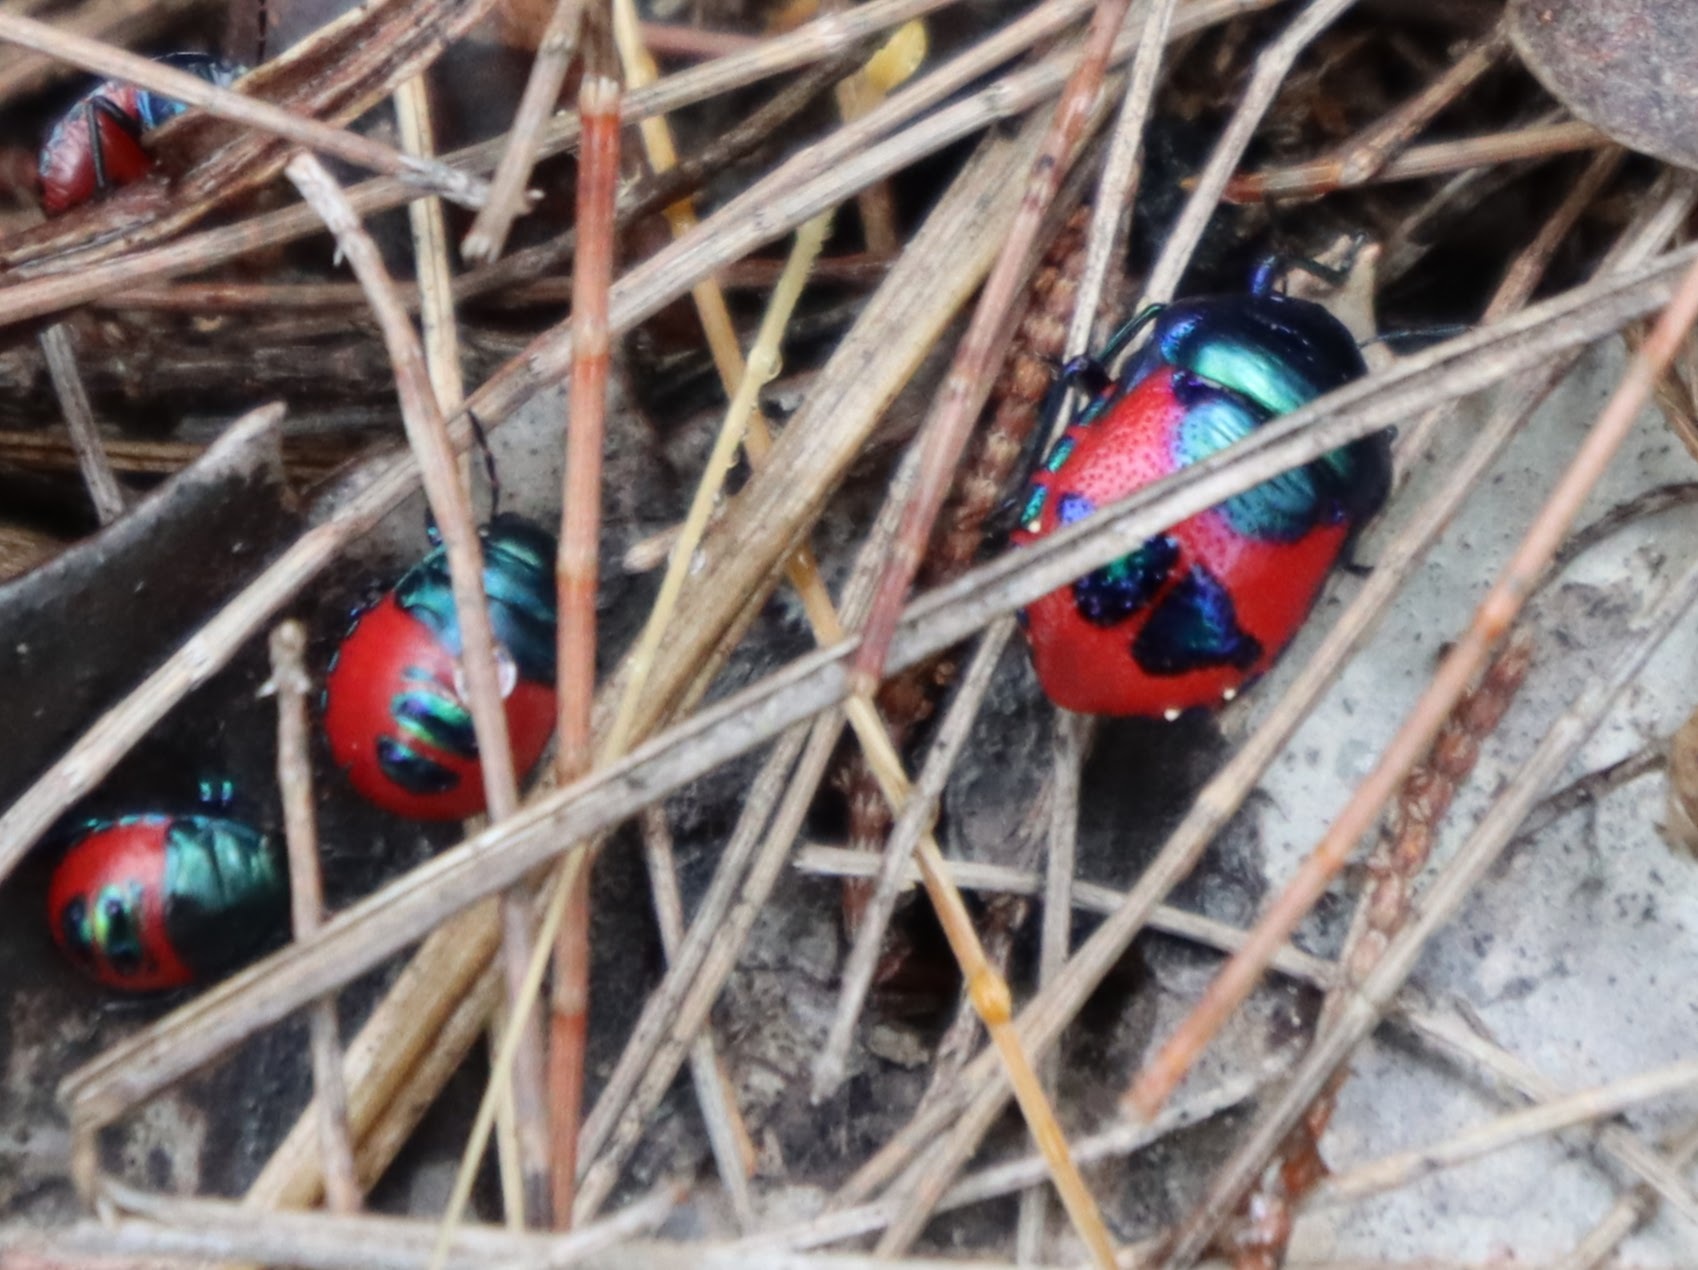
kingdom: Animalia
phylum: Arthropoda
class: Insecta
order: Hemiptera
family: Scutelleridae
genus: Choerocoris
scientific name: Choerocoris paganus
